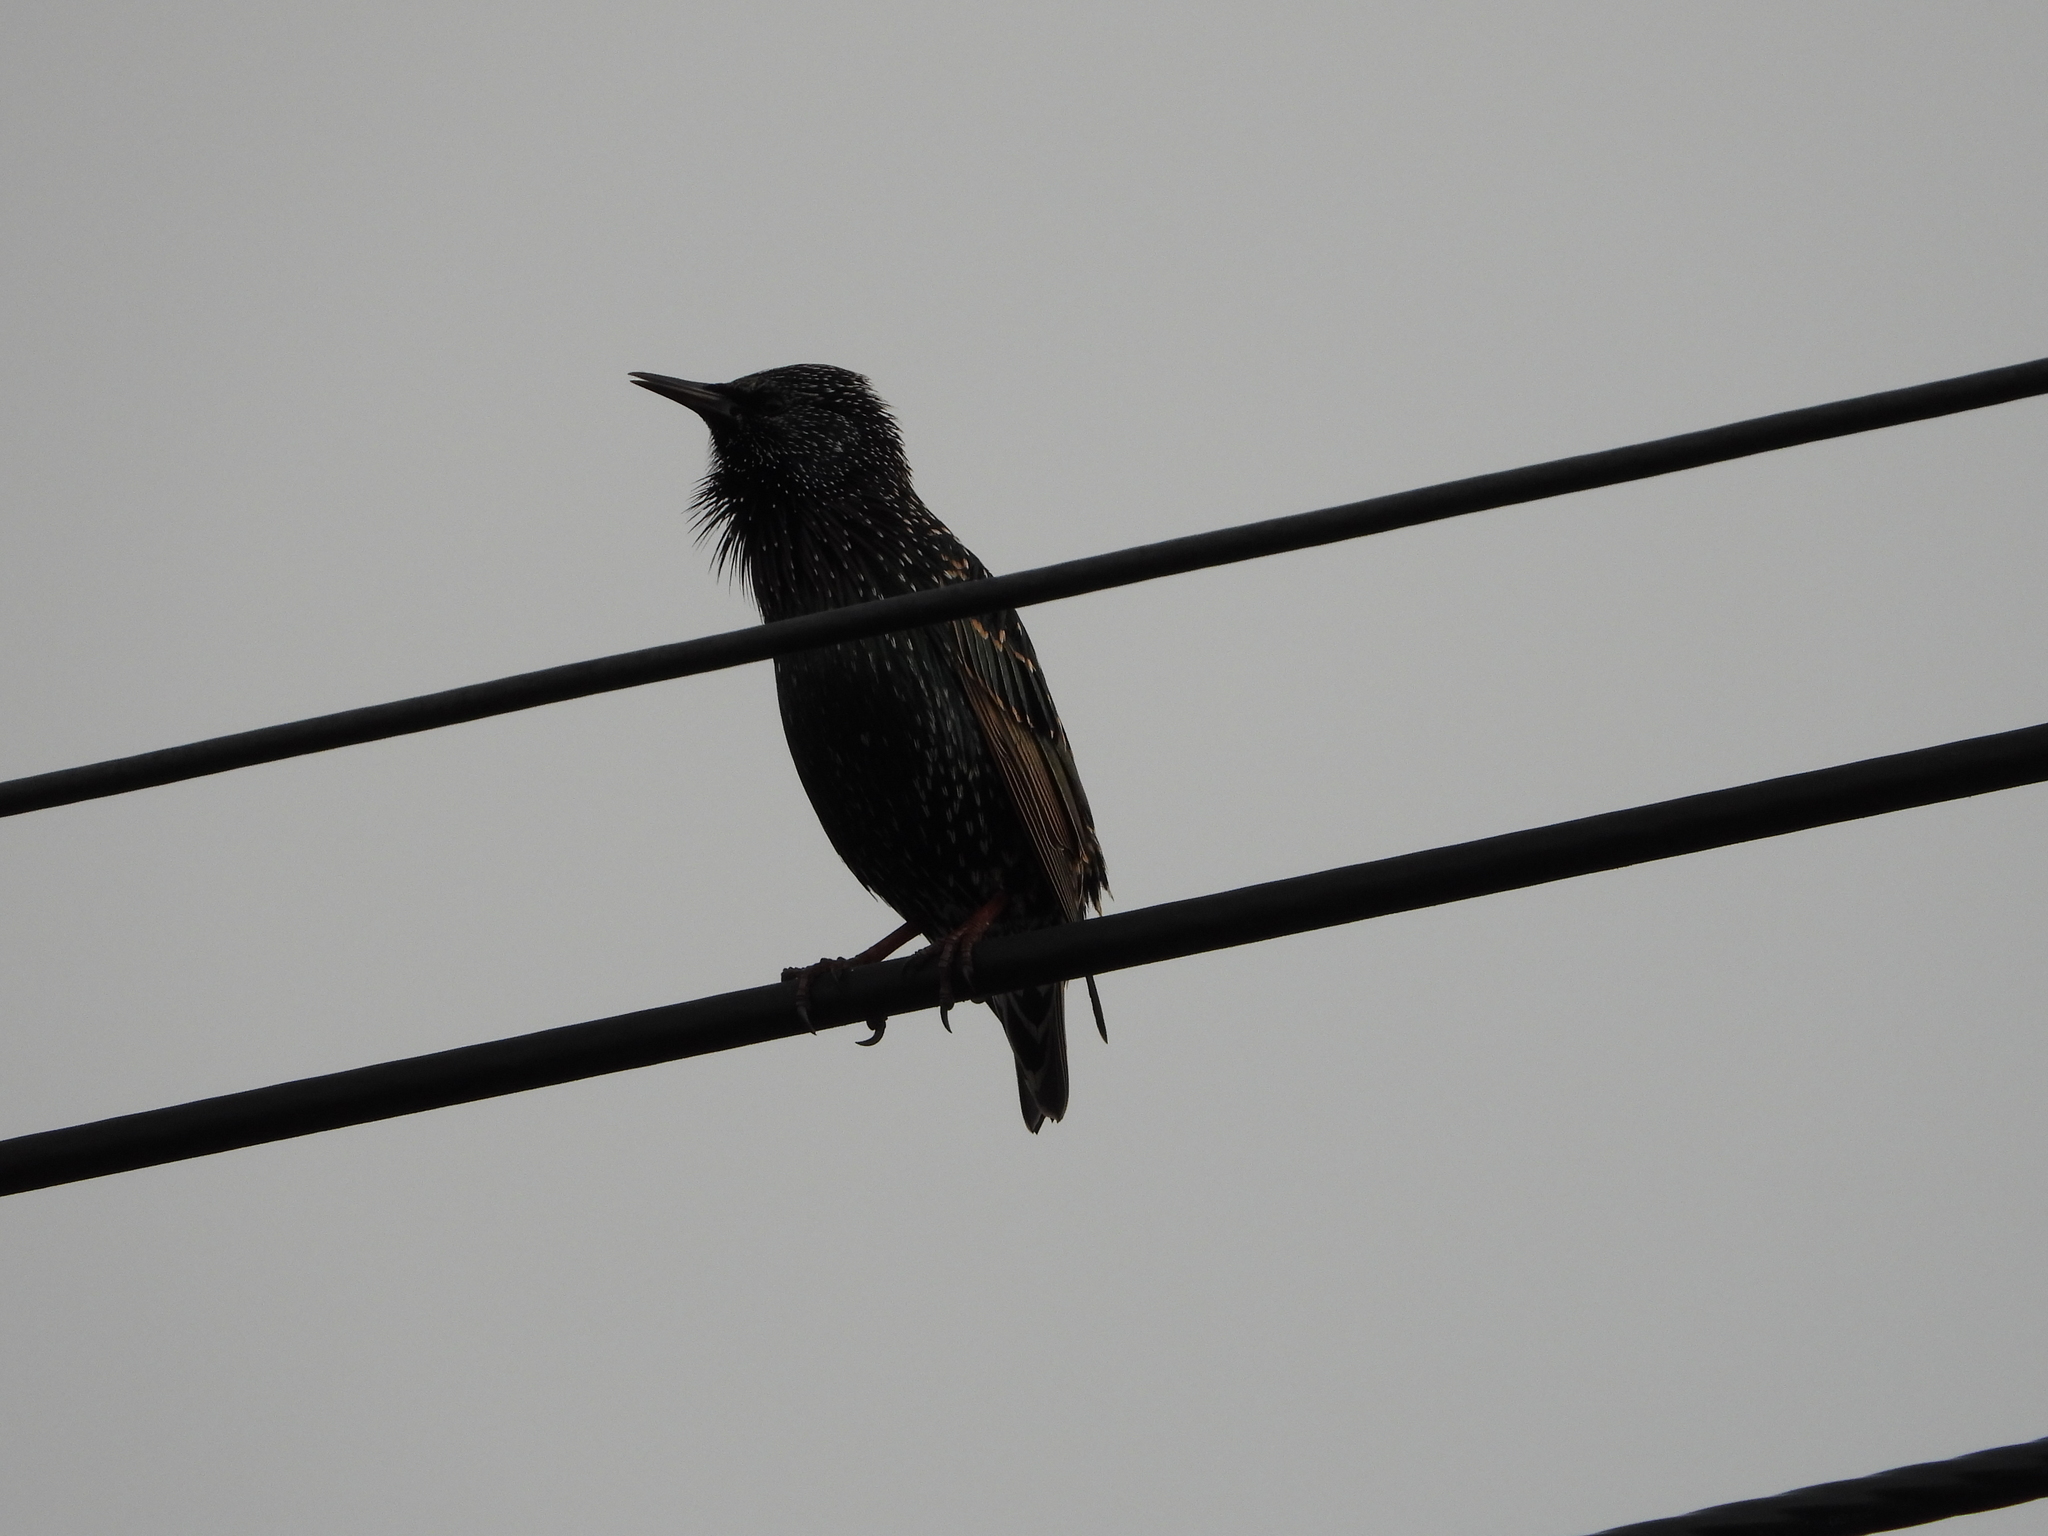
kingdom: Animalia
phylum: Chordata
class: Aves
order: Passeriformes
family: Sturnidae
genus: Sturnus
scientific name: Sturnus vulgaris
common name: Common starling
